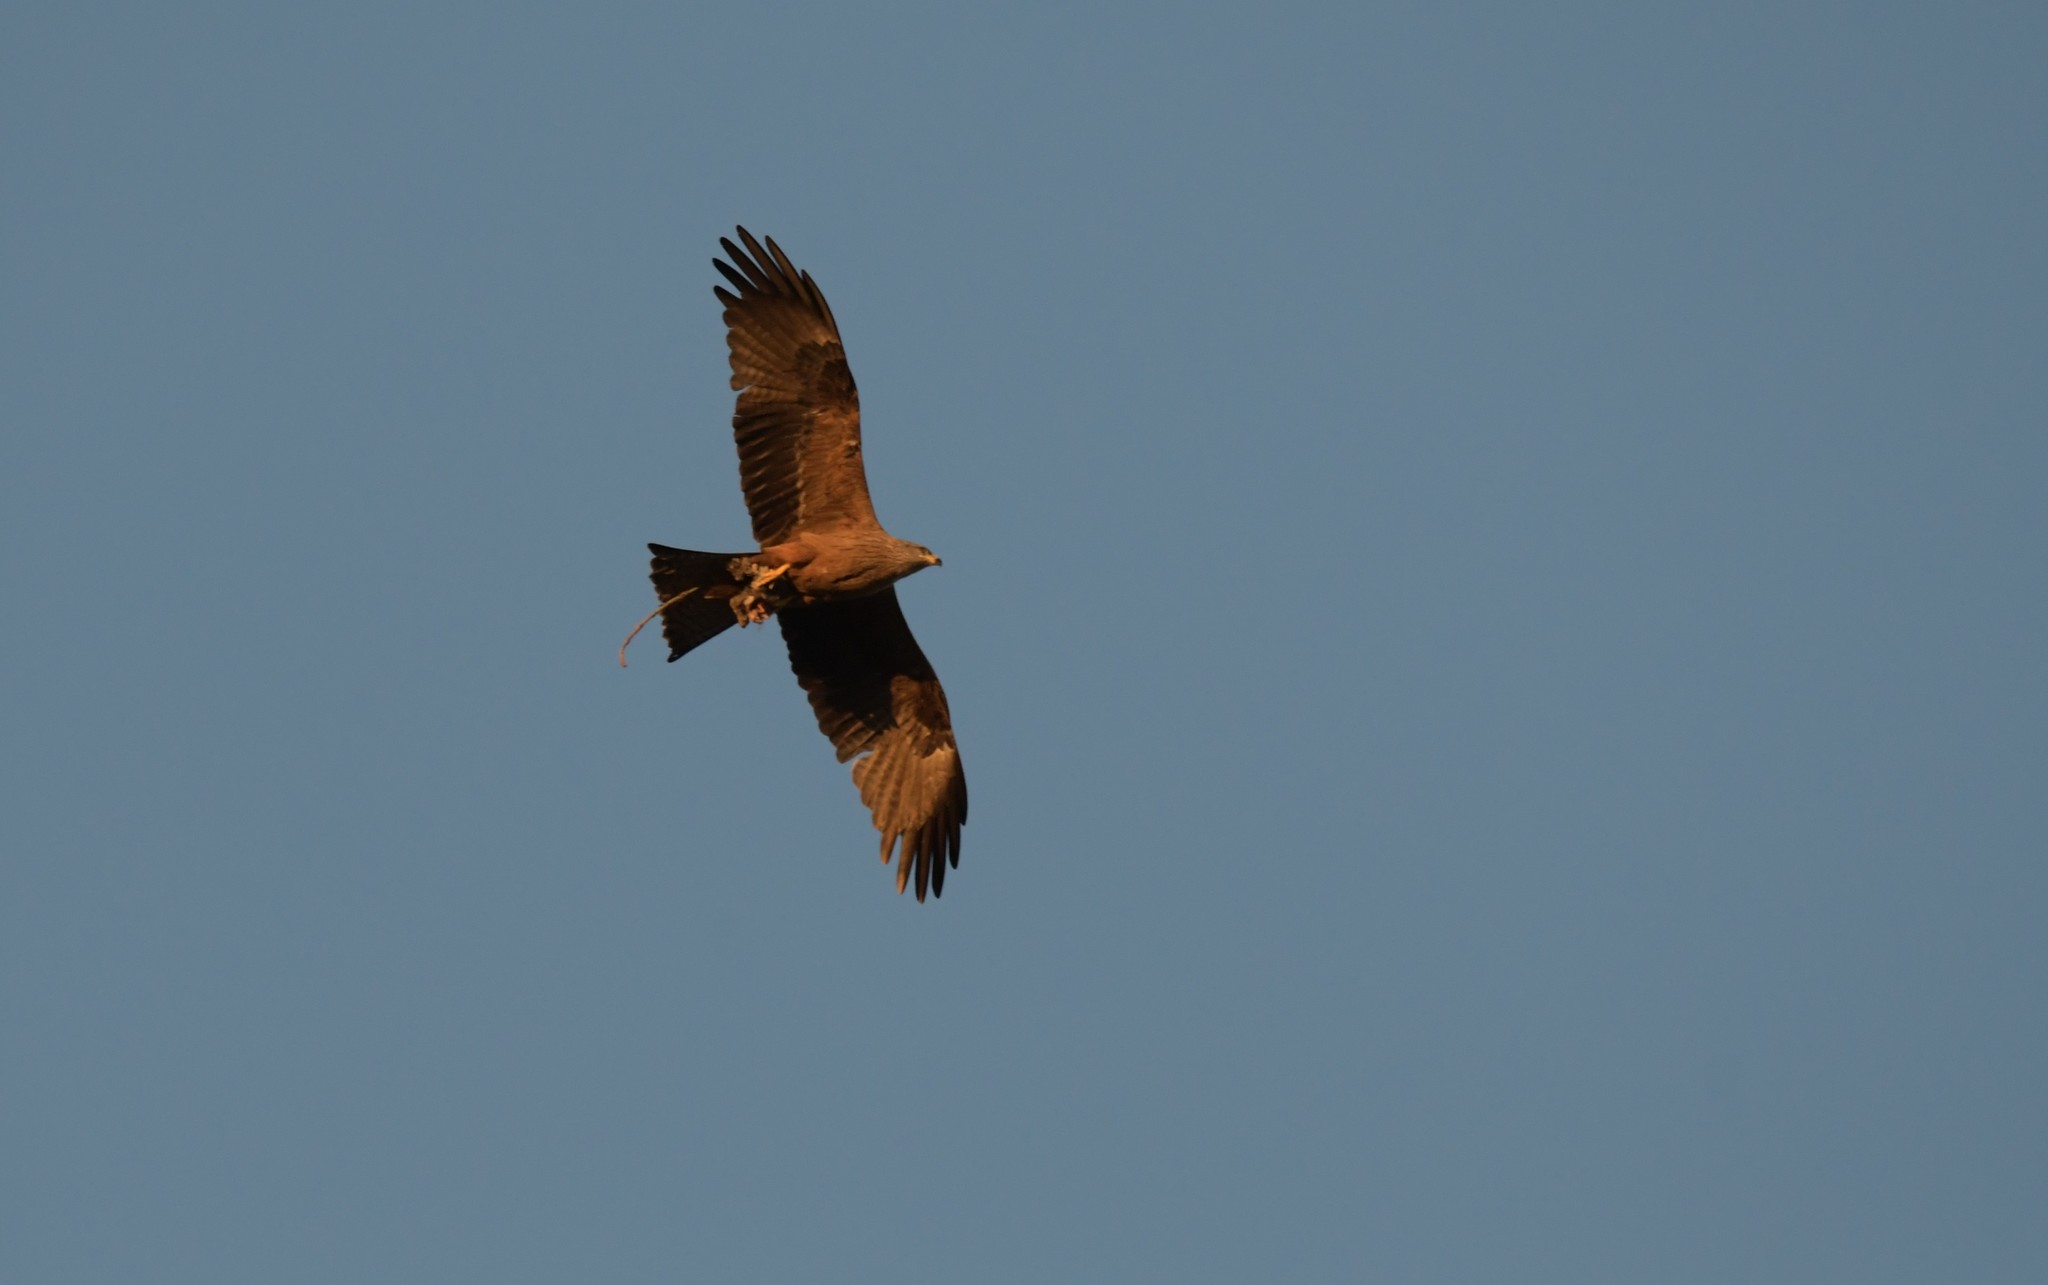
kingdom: Animalia
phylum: Chordata
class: Aves
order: Accipitriformes
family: Accipitridae
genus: Milvus
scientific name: Milvus migrans
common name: Black kite
